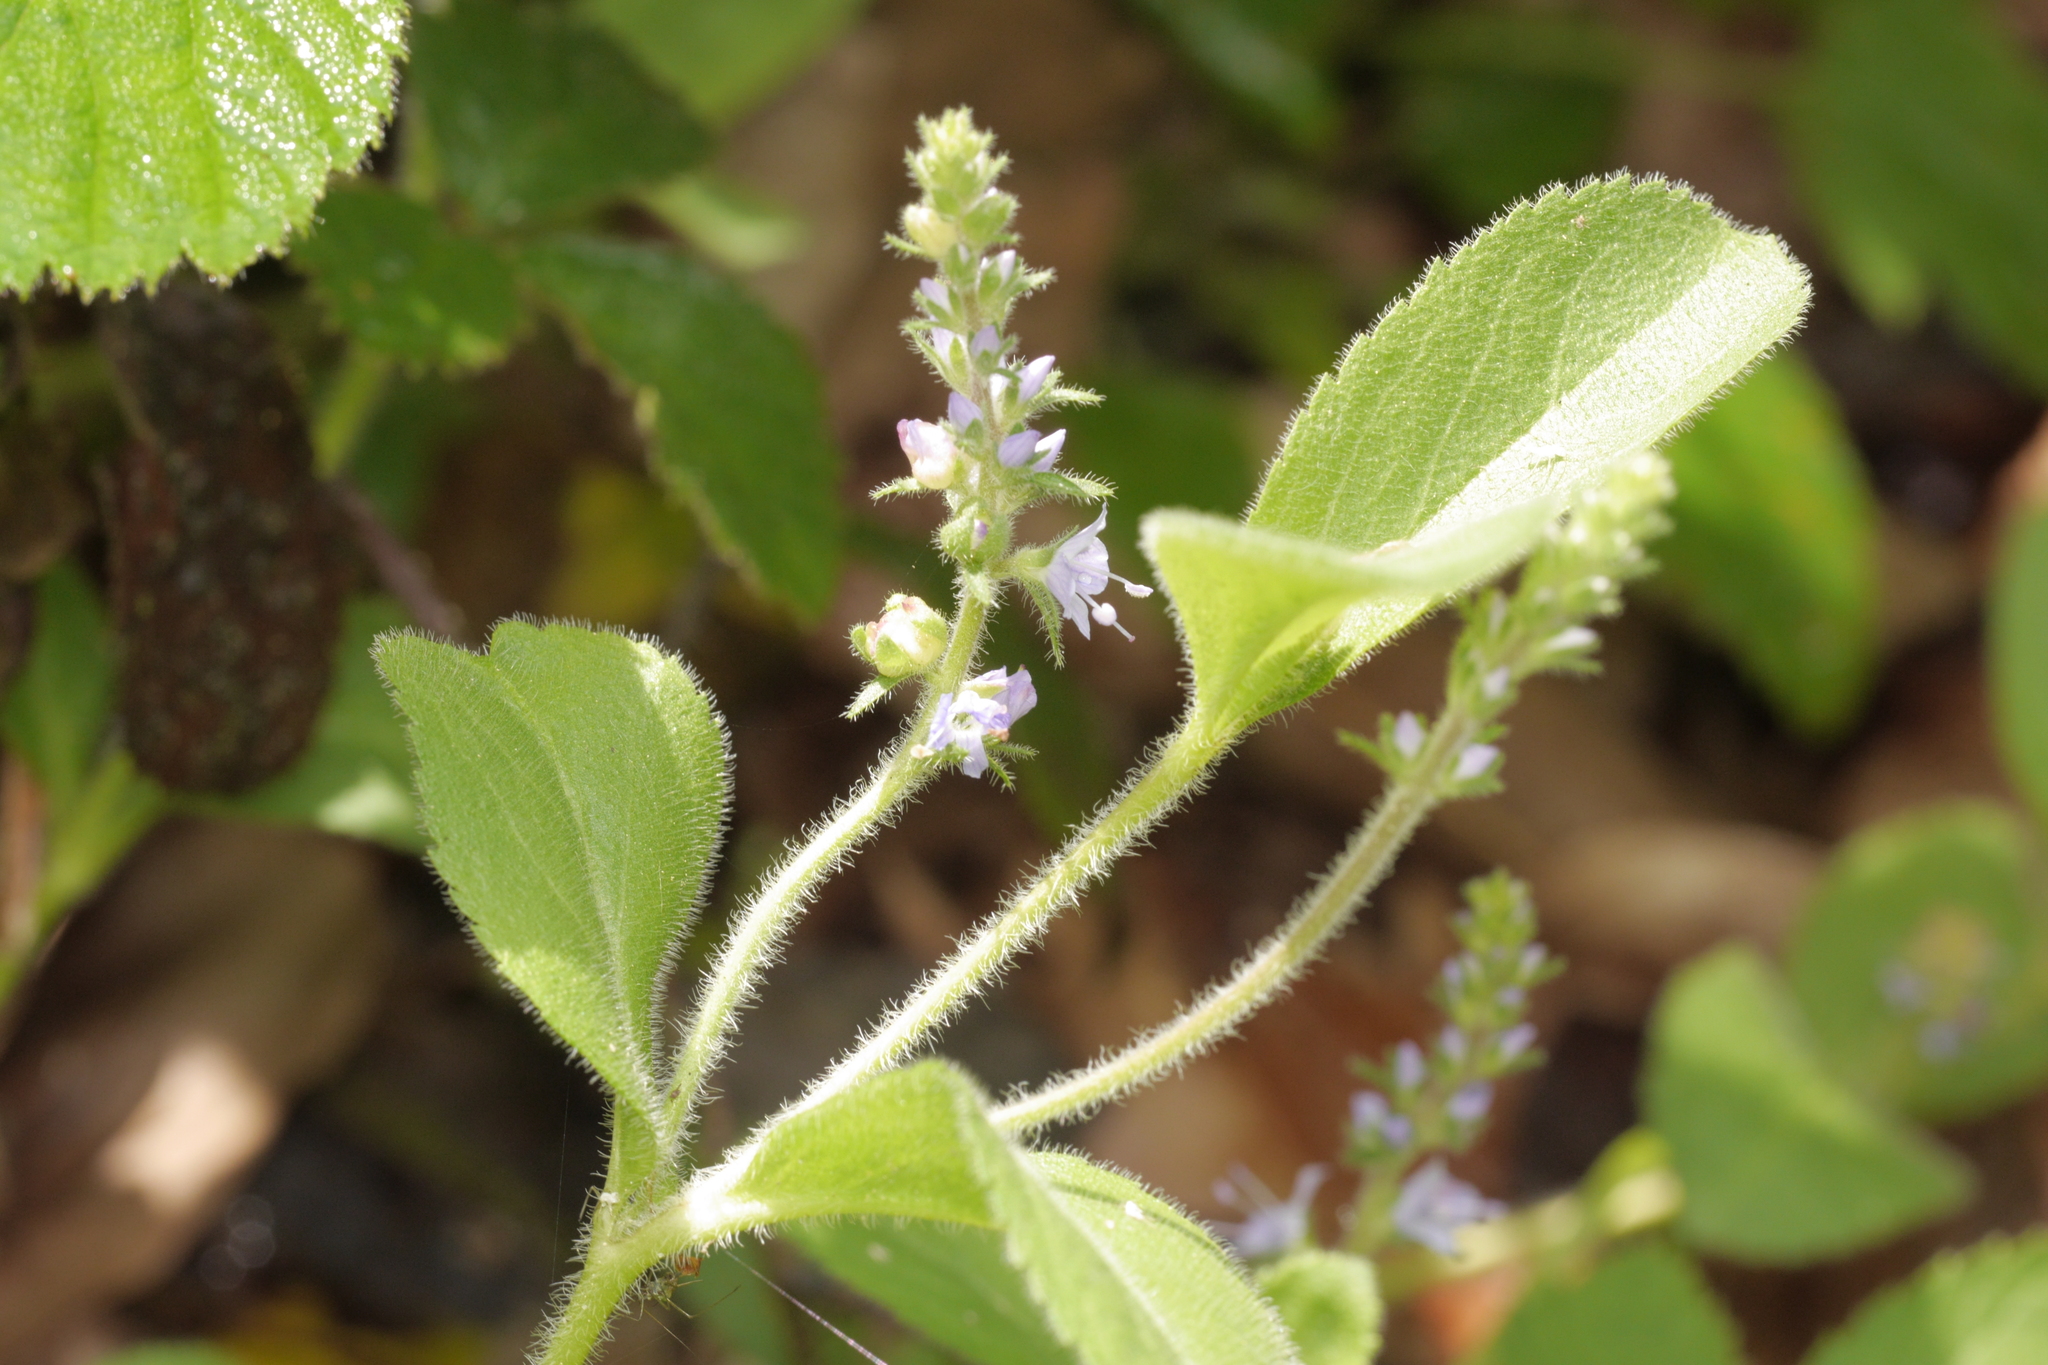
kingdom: Plantae
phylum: Tracheophyta
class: Magnoliopsida
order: Lamiales
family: Plantaginaceae
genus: Veronica
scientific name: Veronica officinalis
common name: Common speedwell
